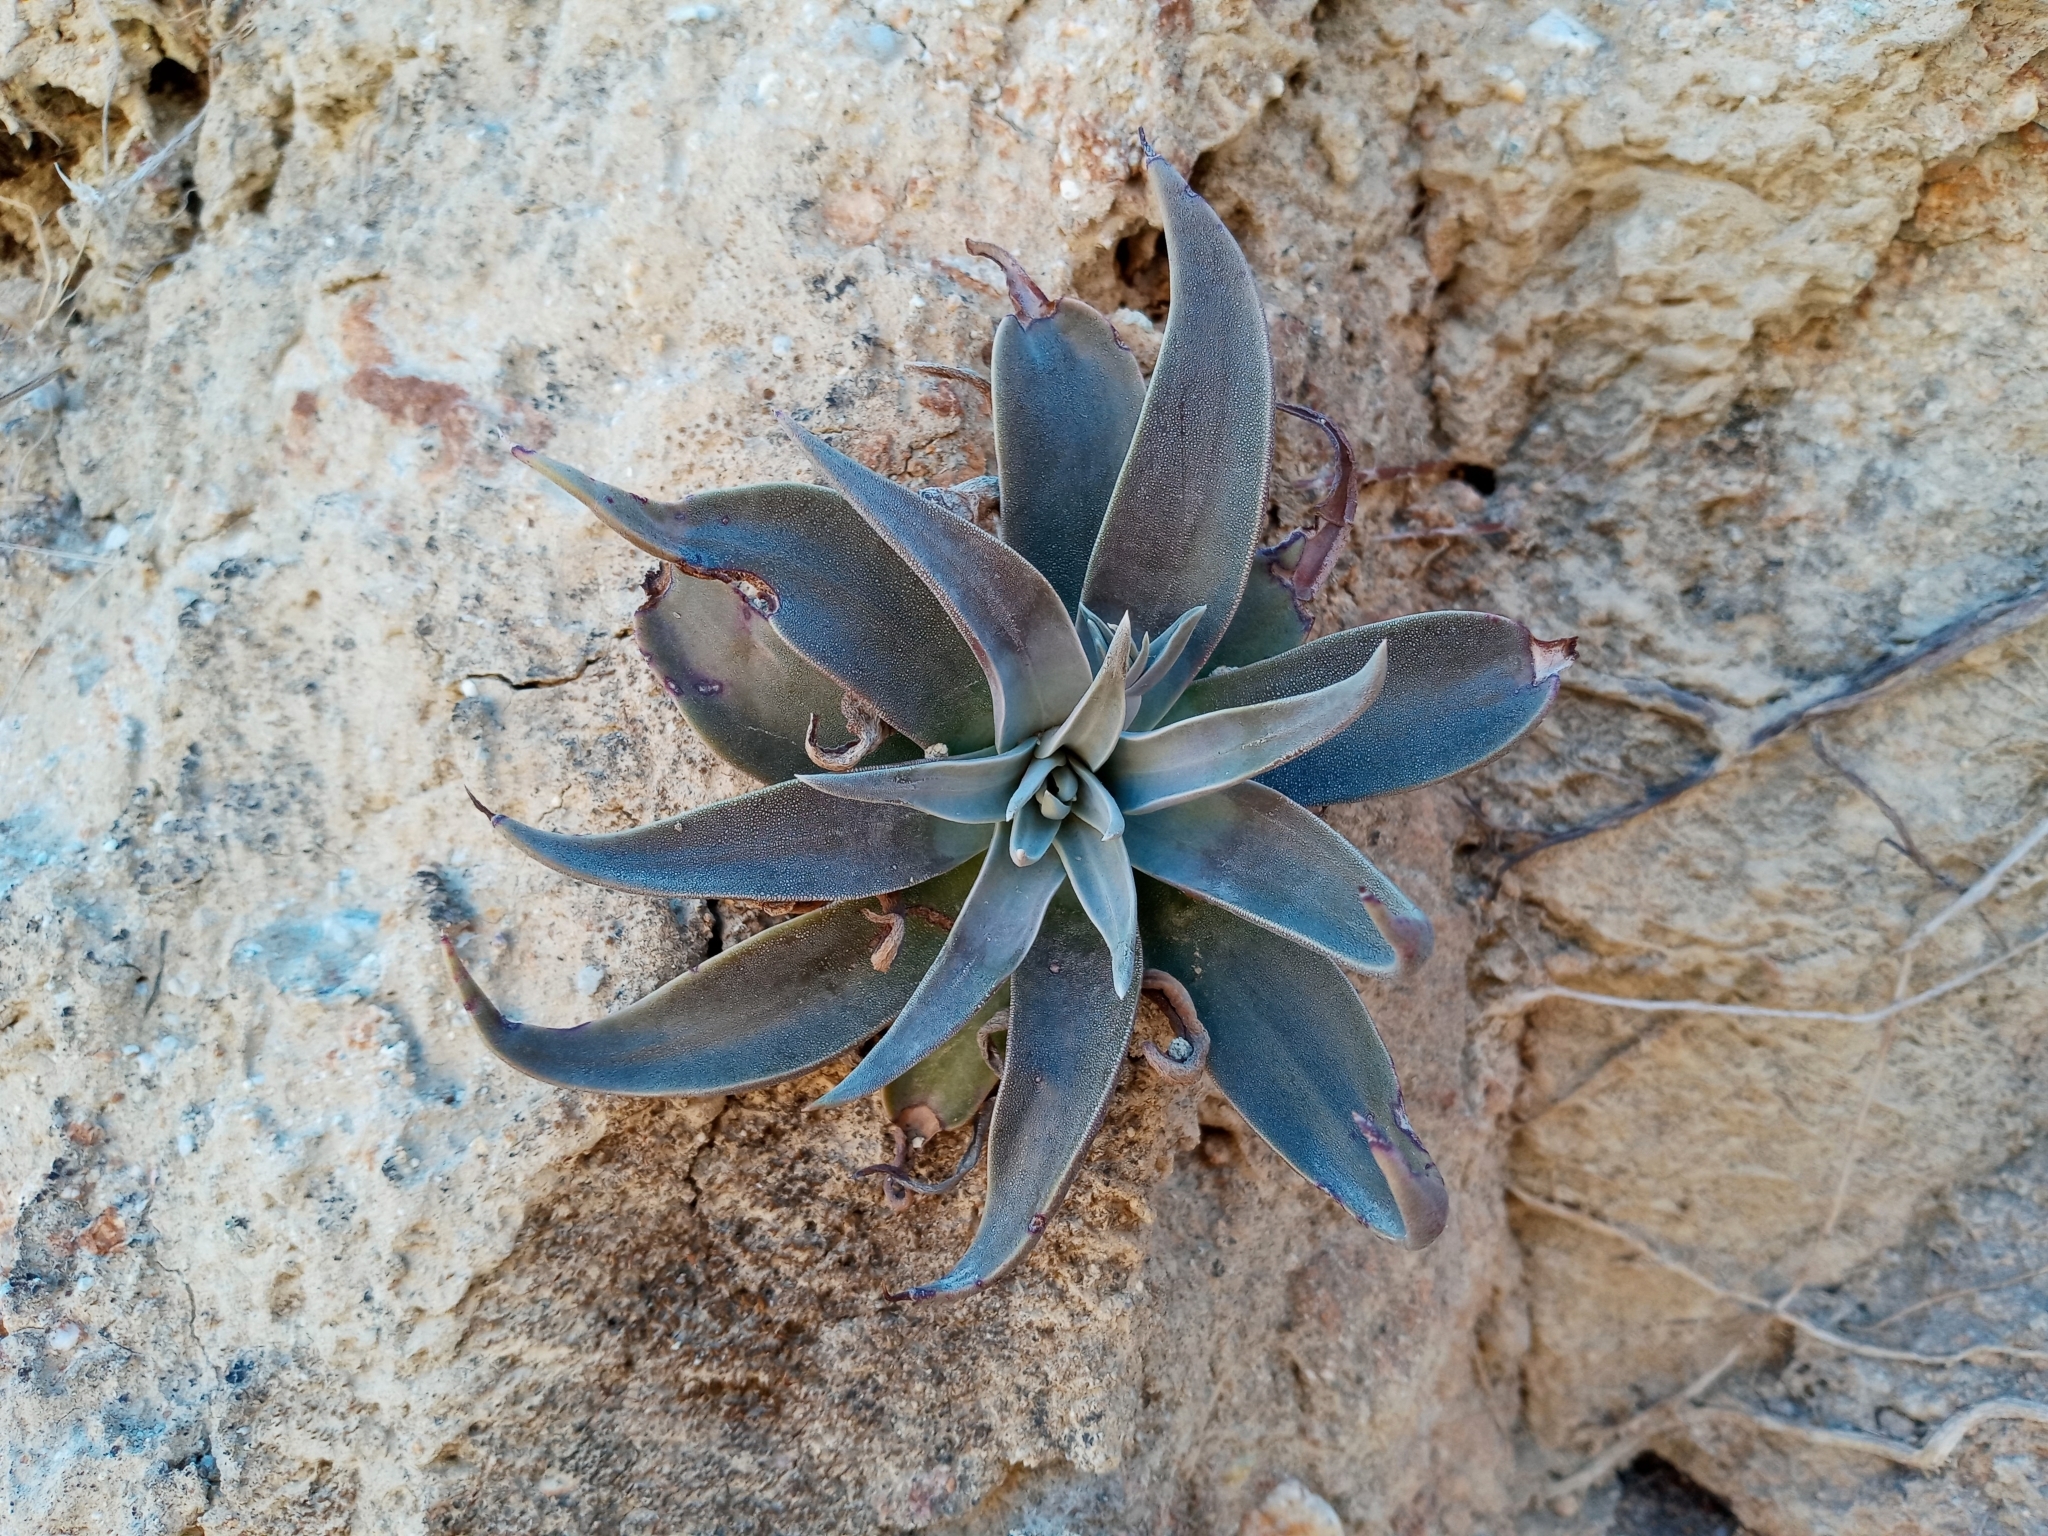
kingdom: Plantae
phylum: Tracheophyta
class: Magnoliopsida
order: Saxifragales
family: Crassulaceae
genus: Dudleya
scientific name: Dudleya lanceolata
